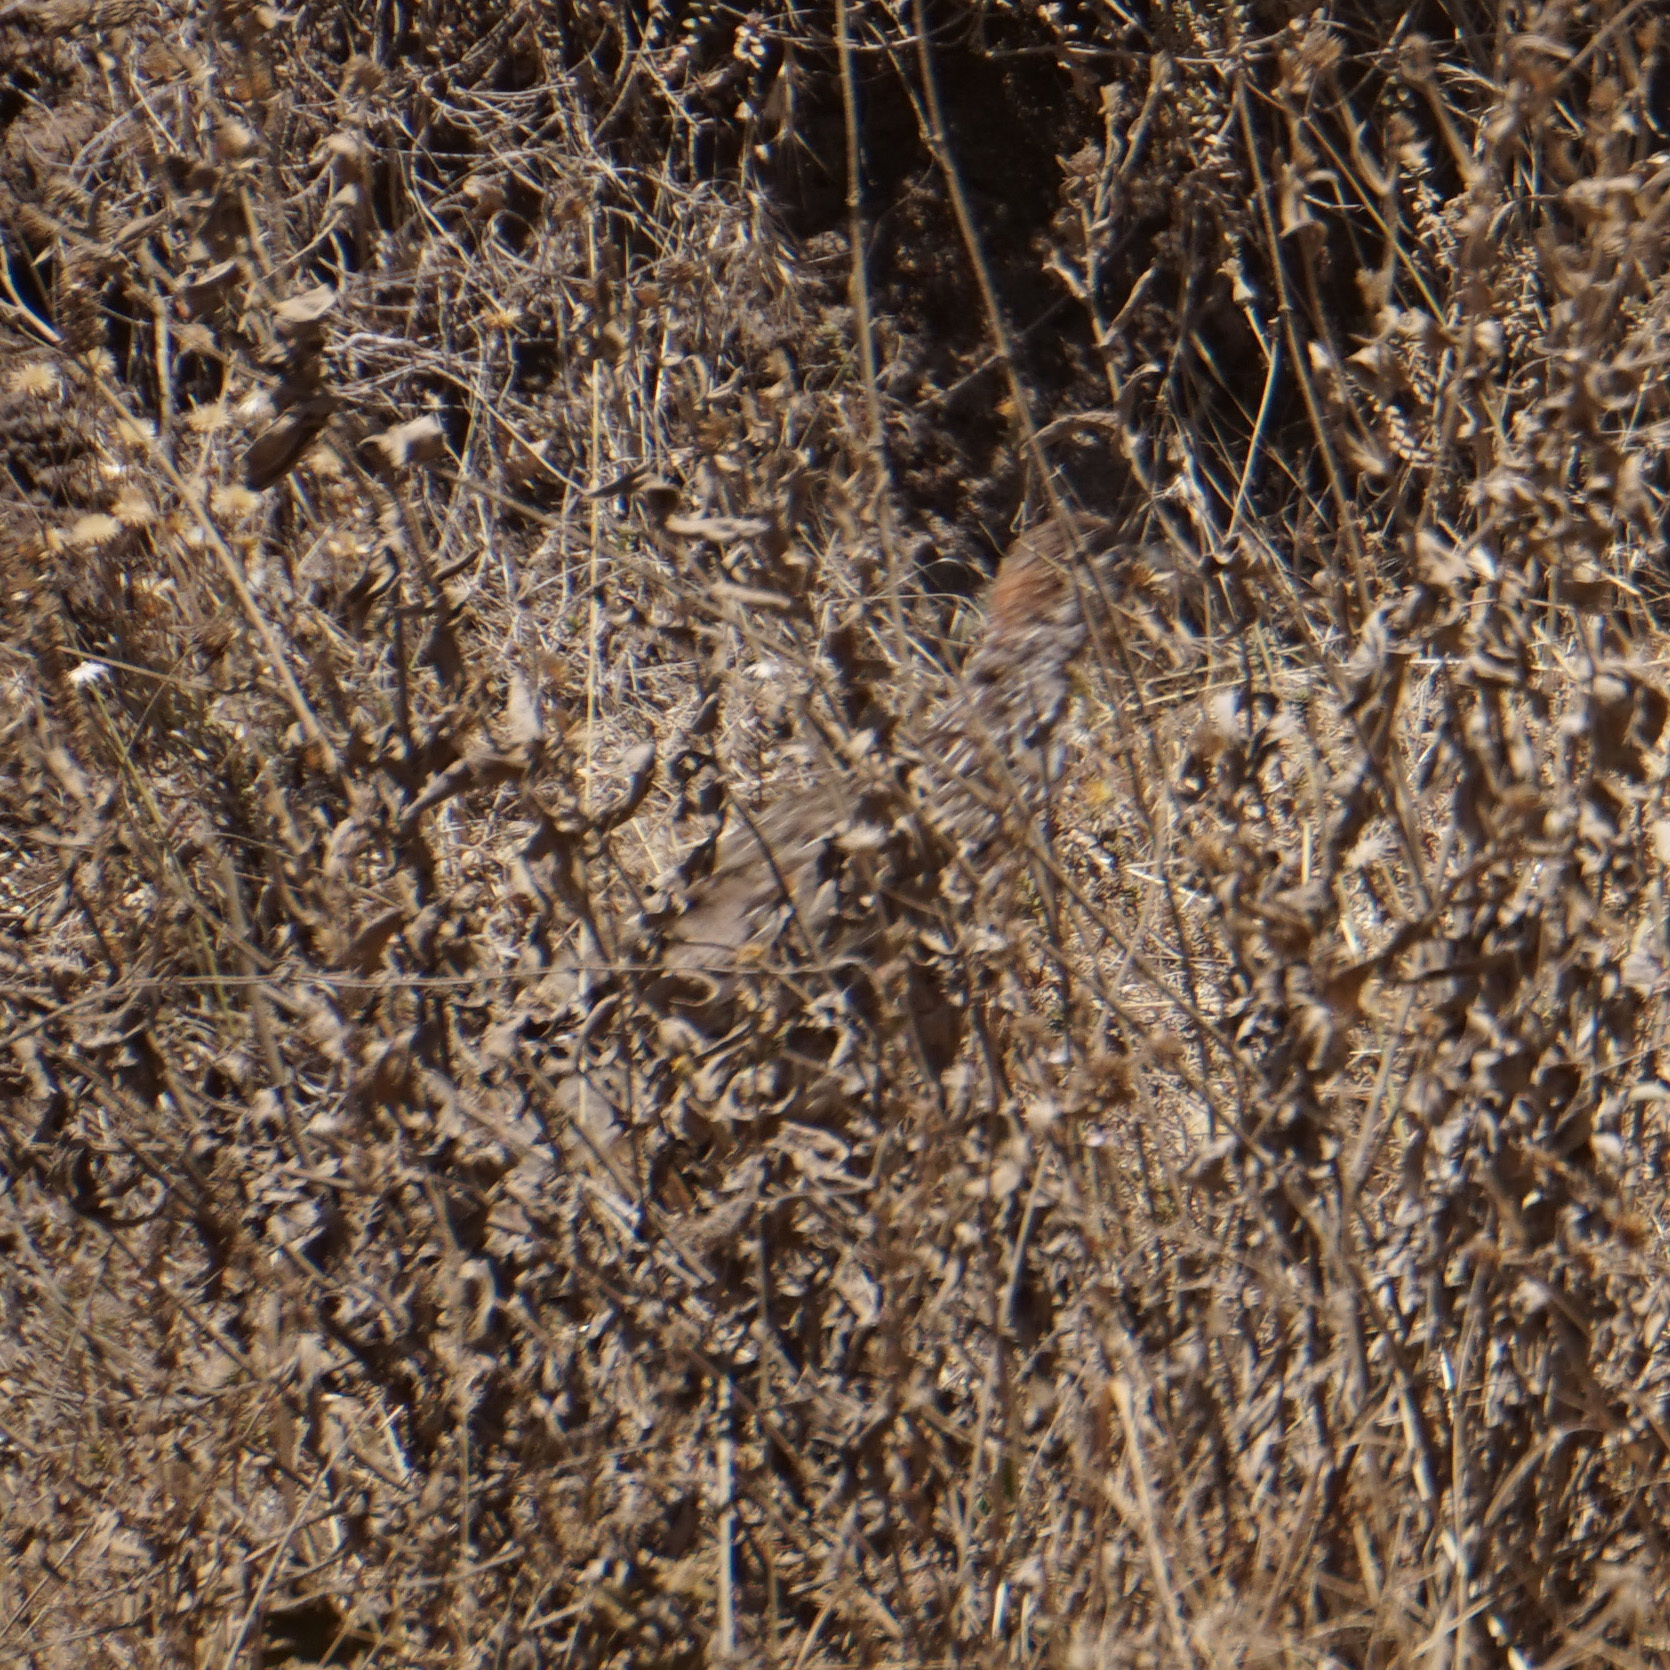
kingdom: Animalia
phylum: Chordata
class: Aves
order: Galliformes
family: Phasianidae
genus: Pternistis
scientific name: Pternistis erckelii
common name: Erckel's francolin
